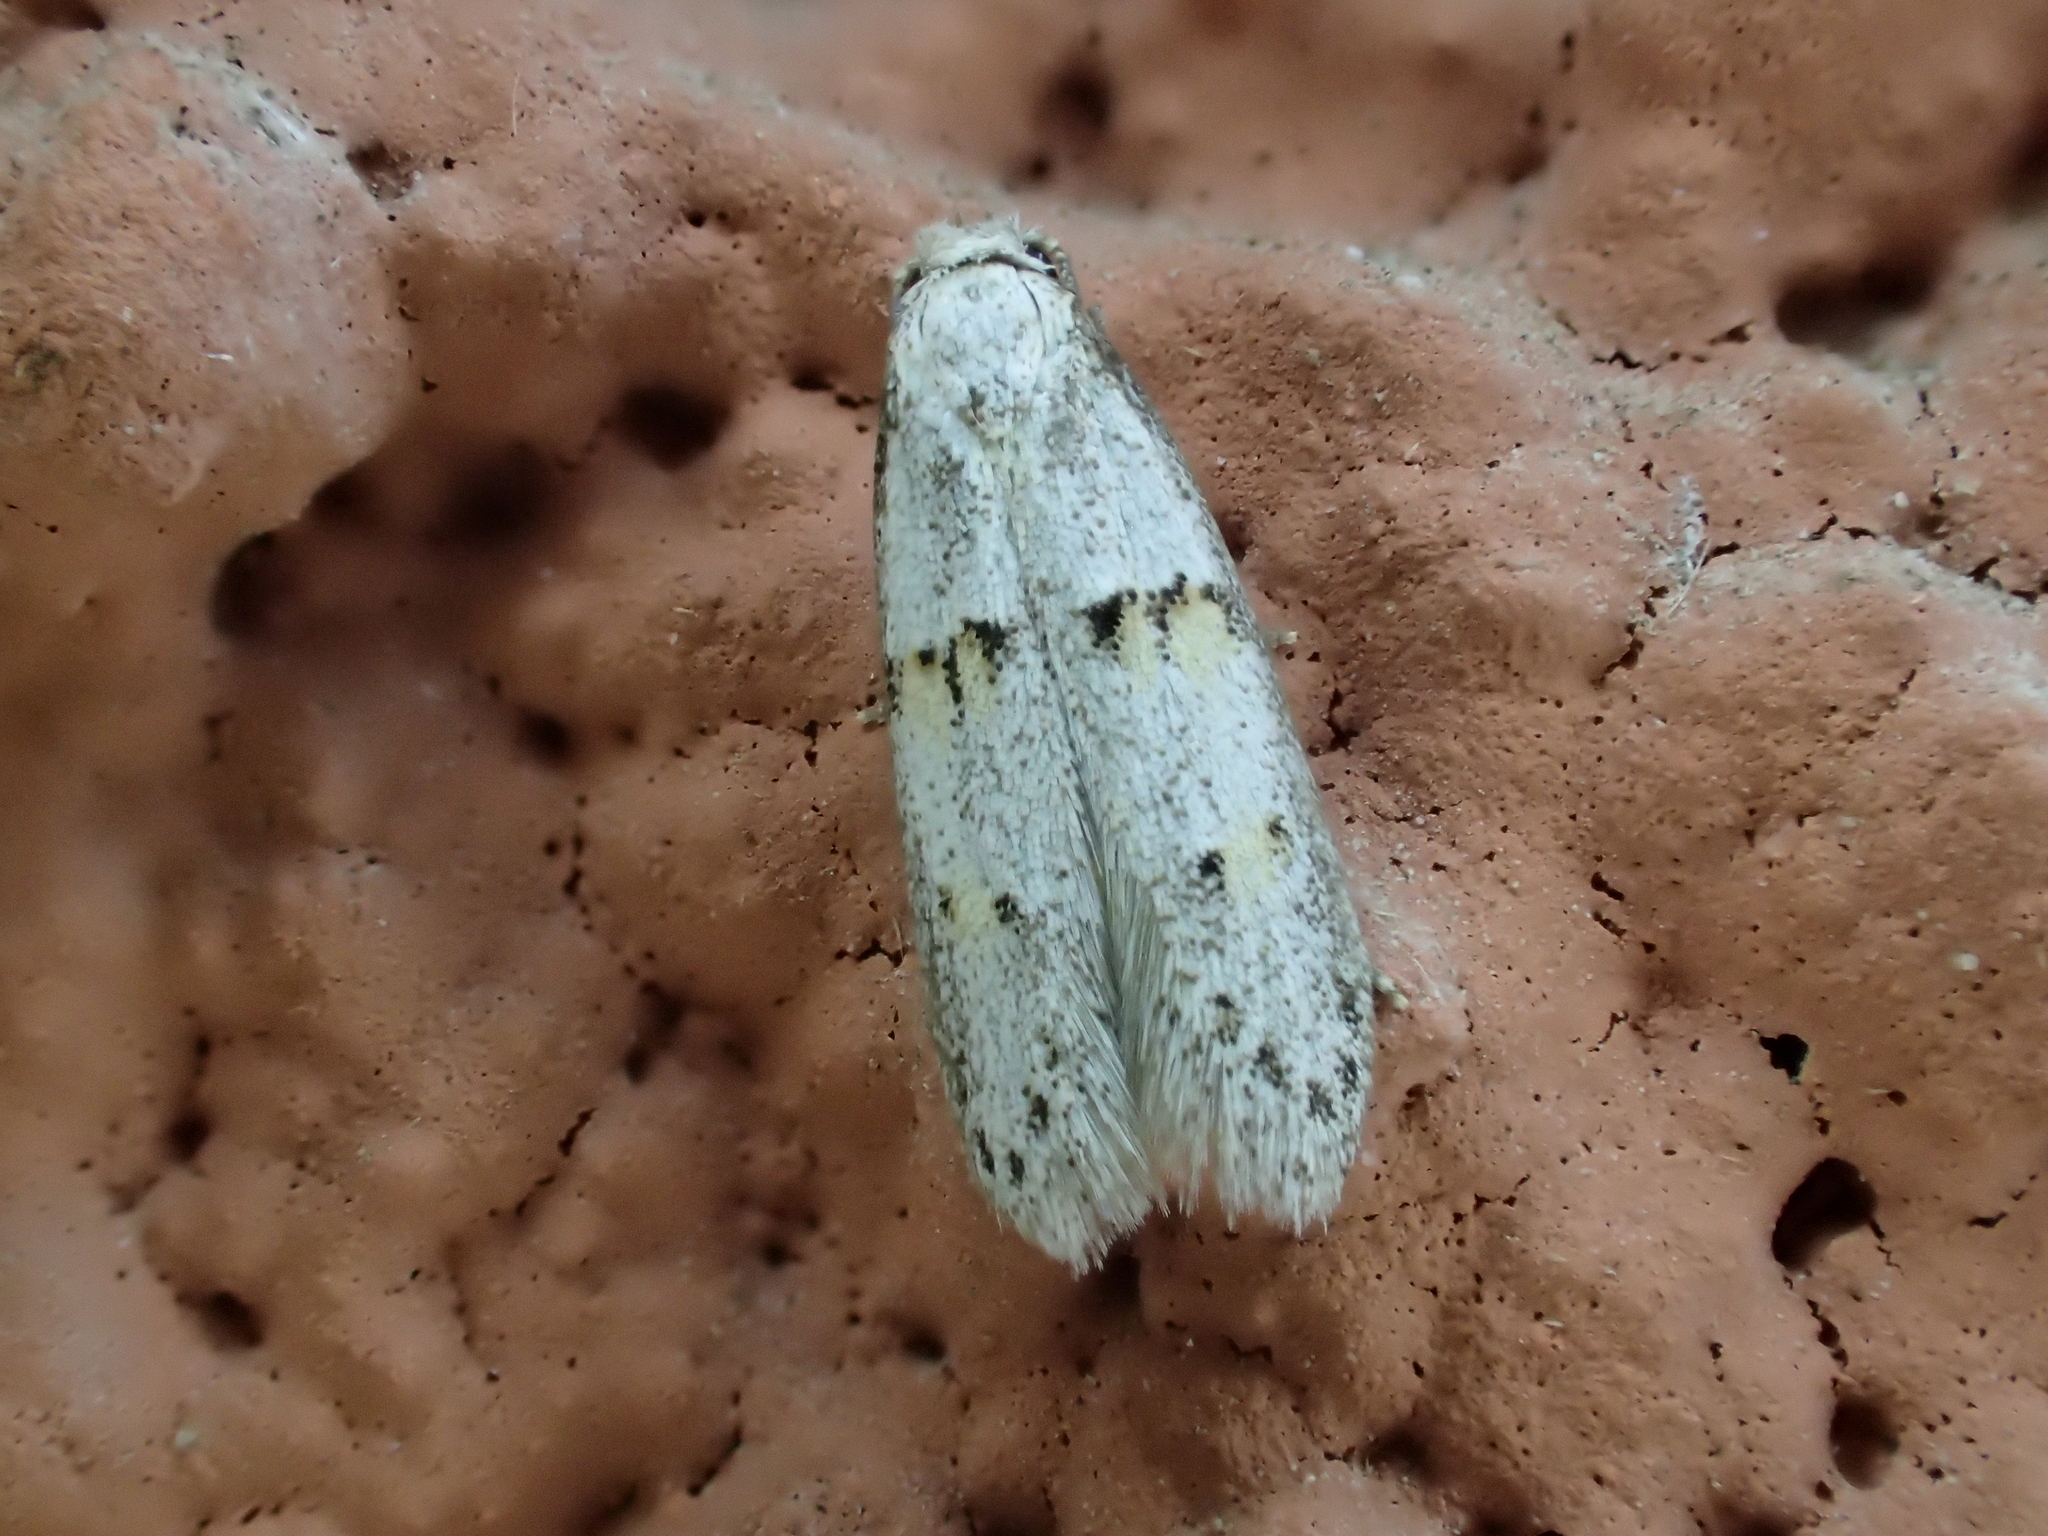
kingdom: Animalia
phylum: Arthropoda
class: Insecta
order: Lepidoptera
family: Autostichidae
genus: Symmocoides
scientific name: Symmocoides oxybiella
